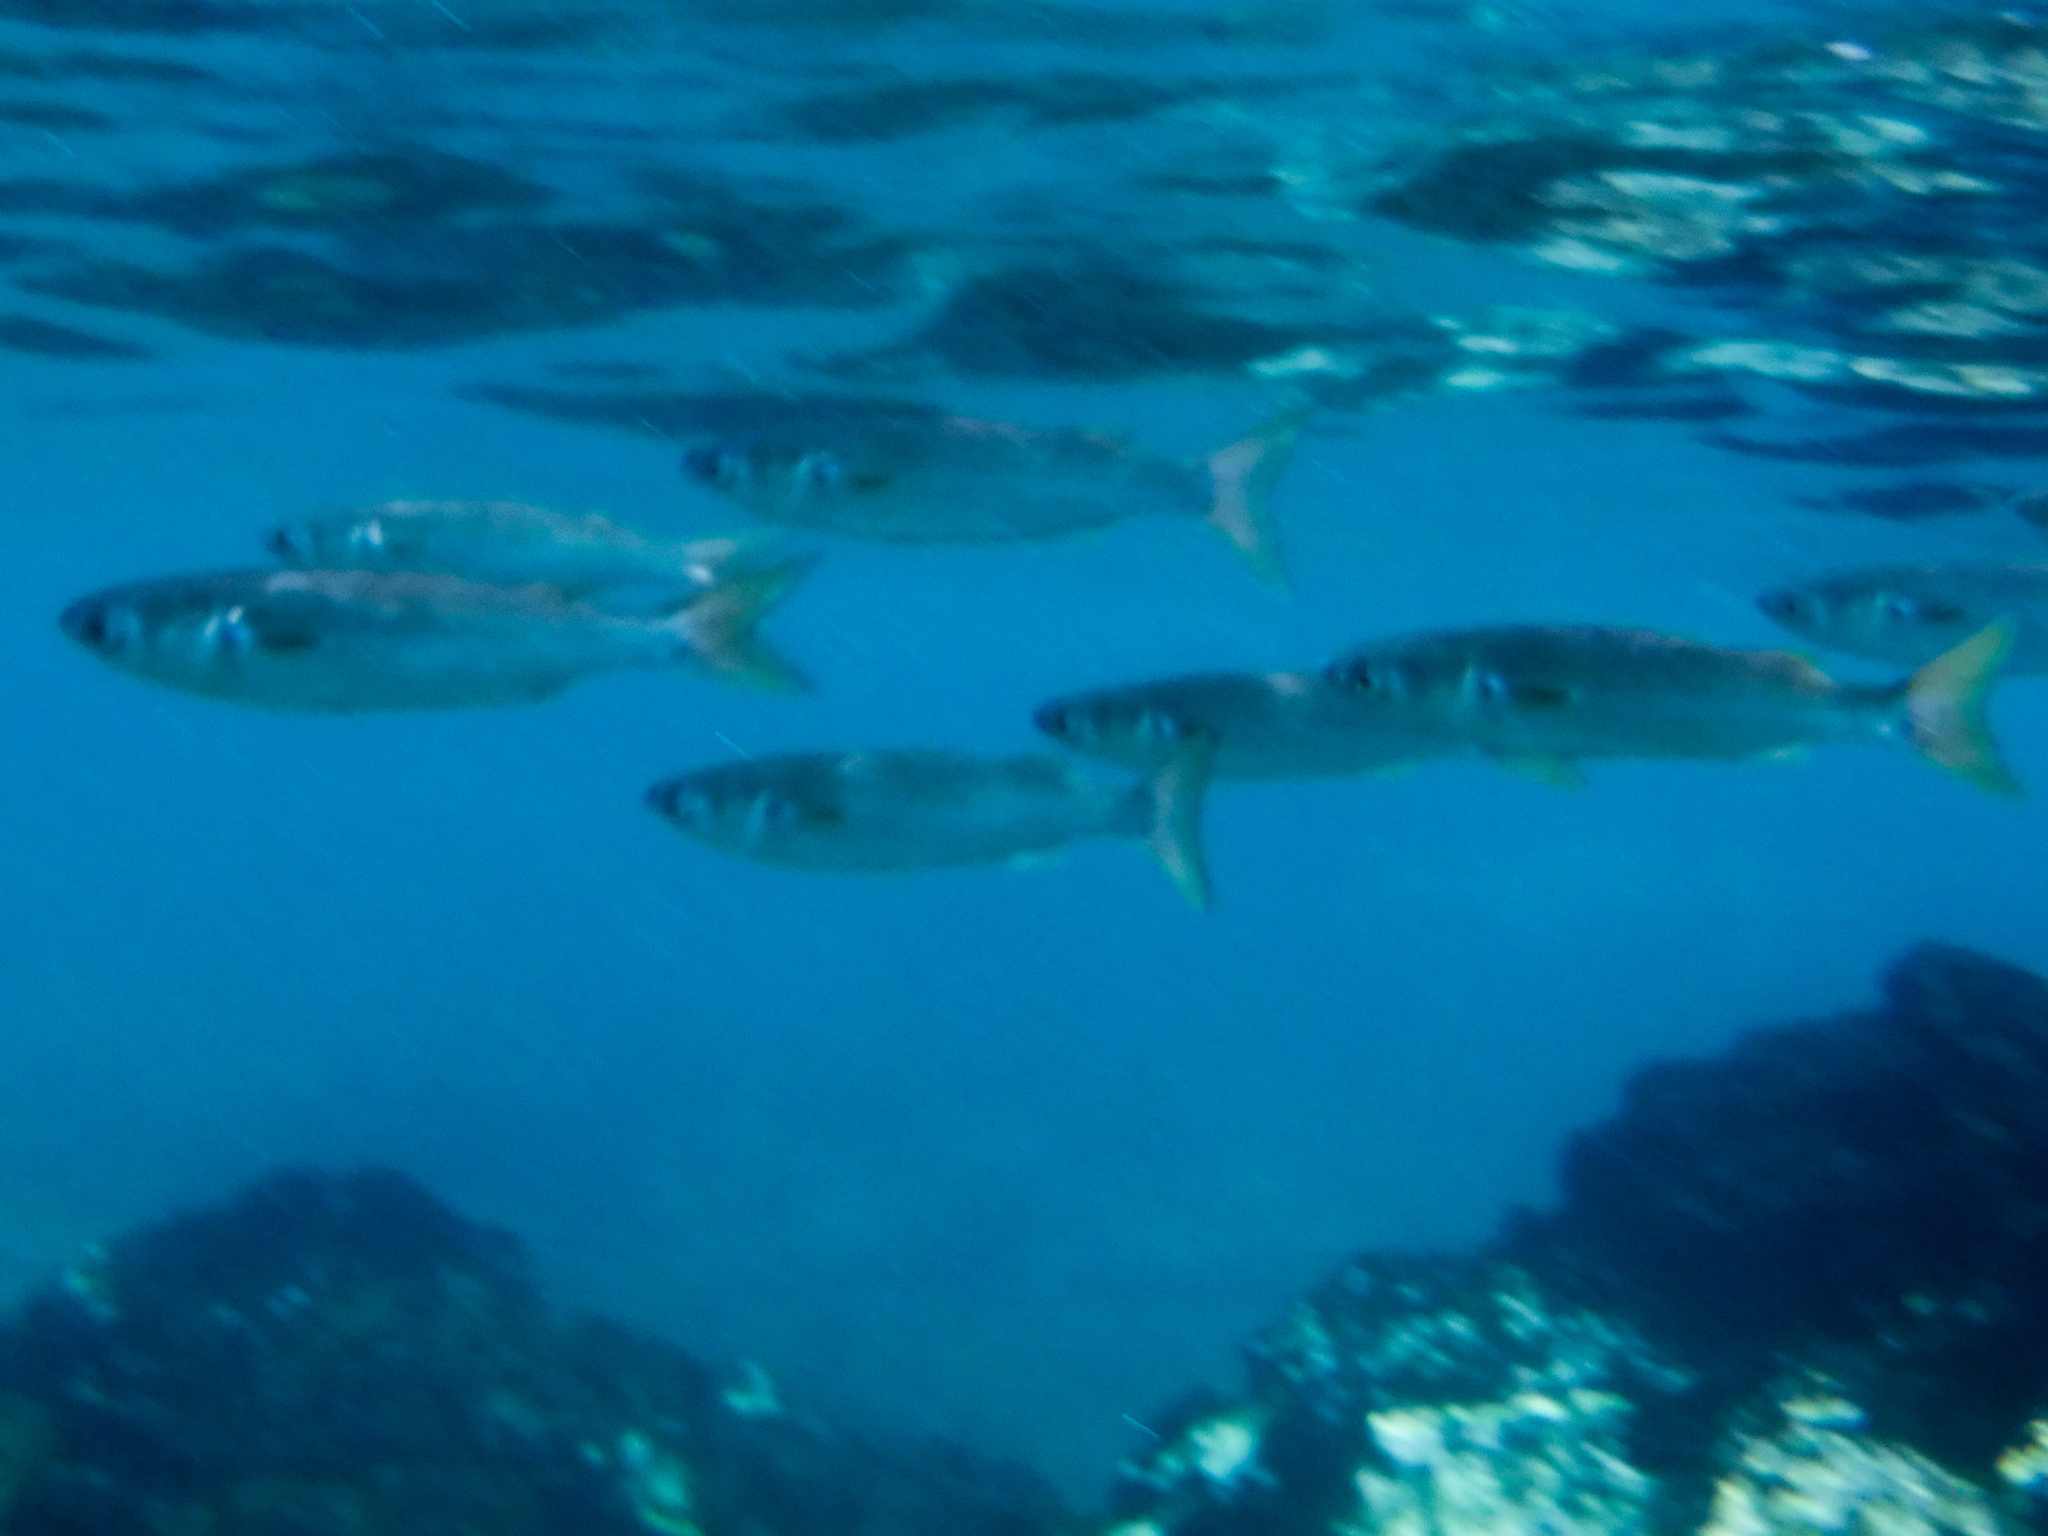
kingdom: Animalia
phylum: Chordata
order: Mugiliformes
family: Mugilidae
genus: Mugil
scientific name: Mugil cephalus
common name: Grey mullet
